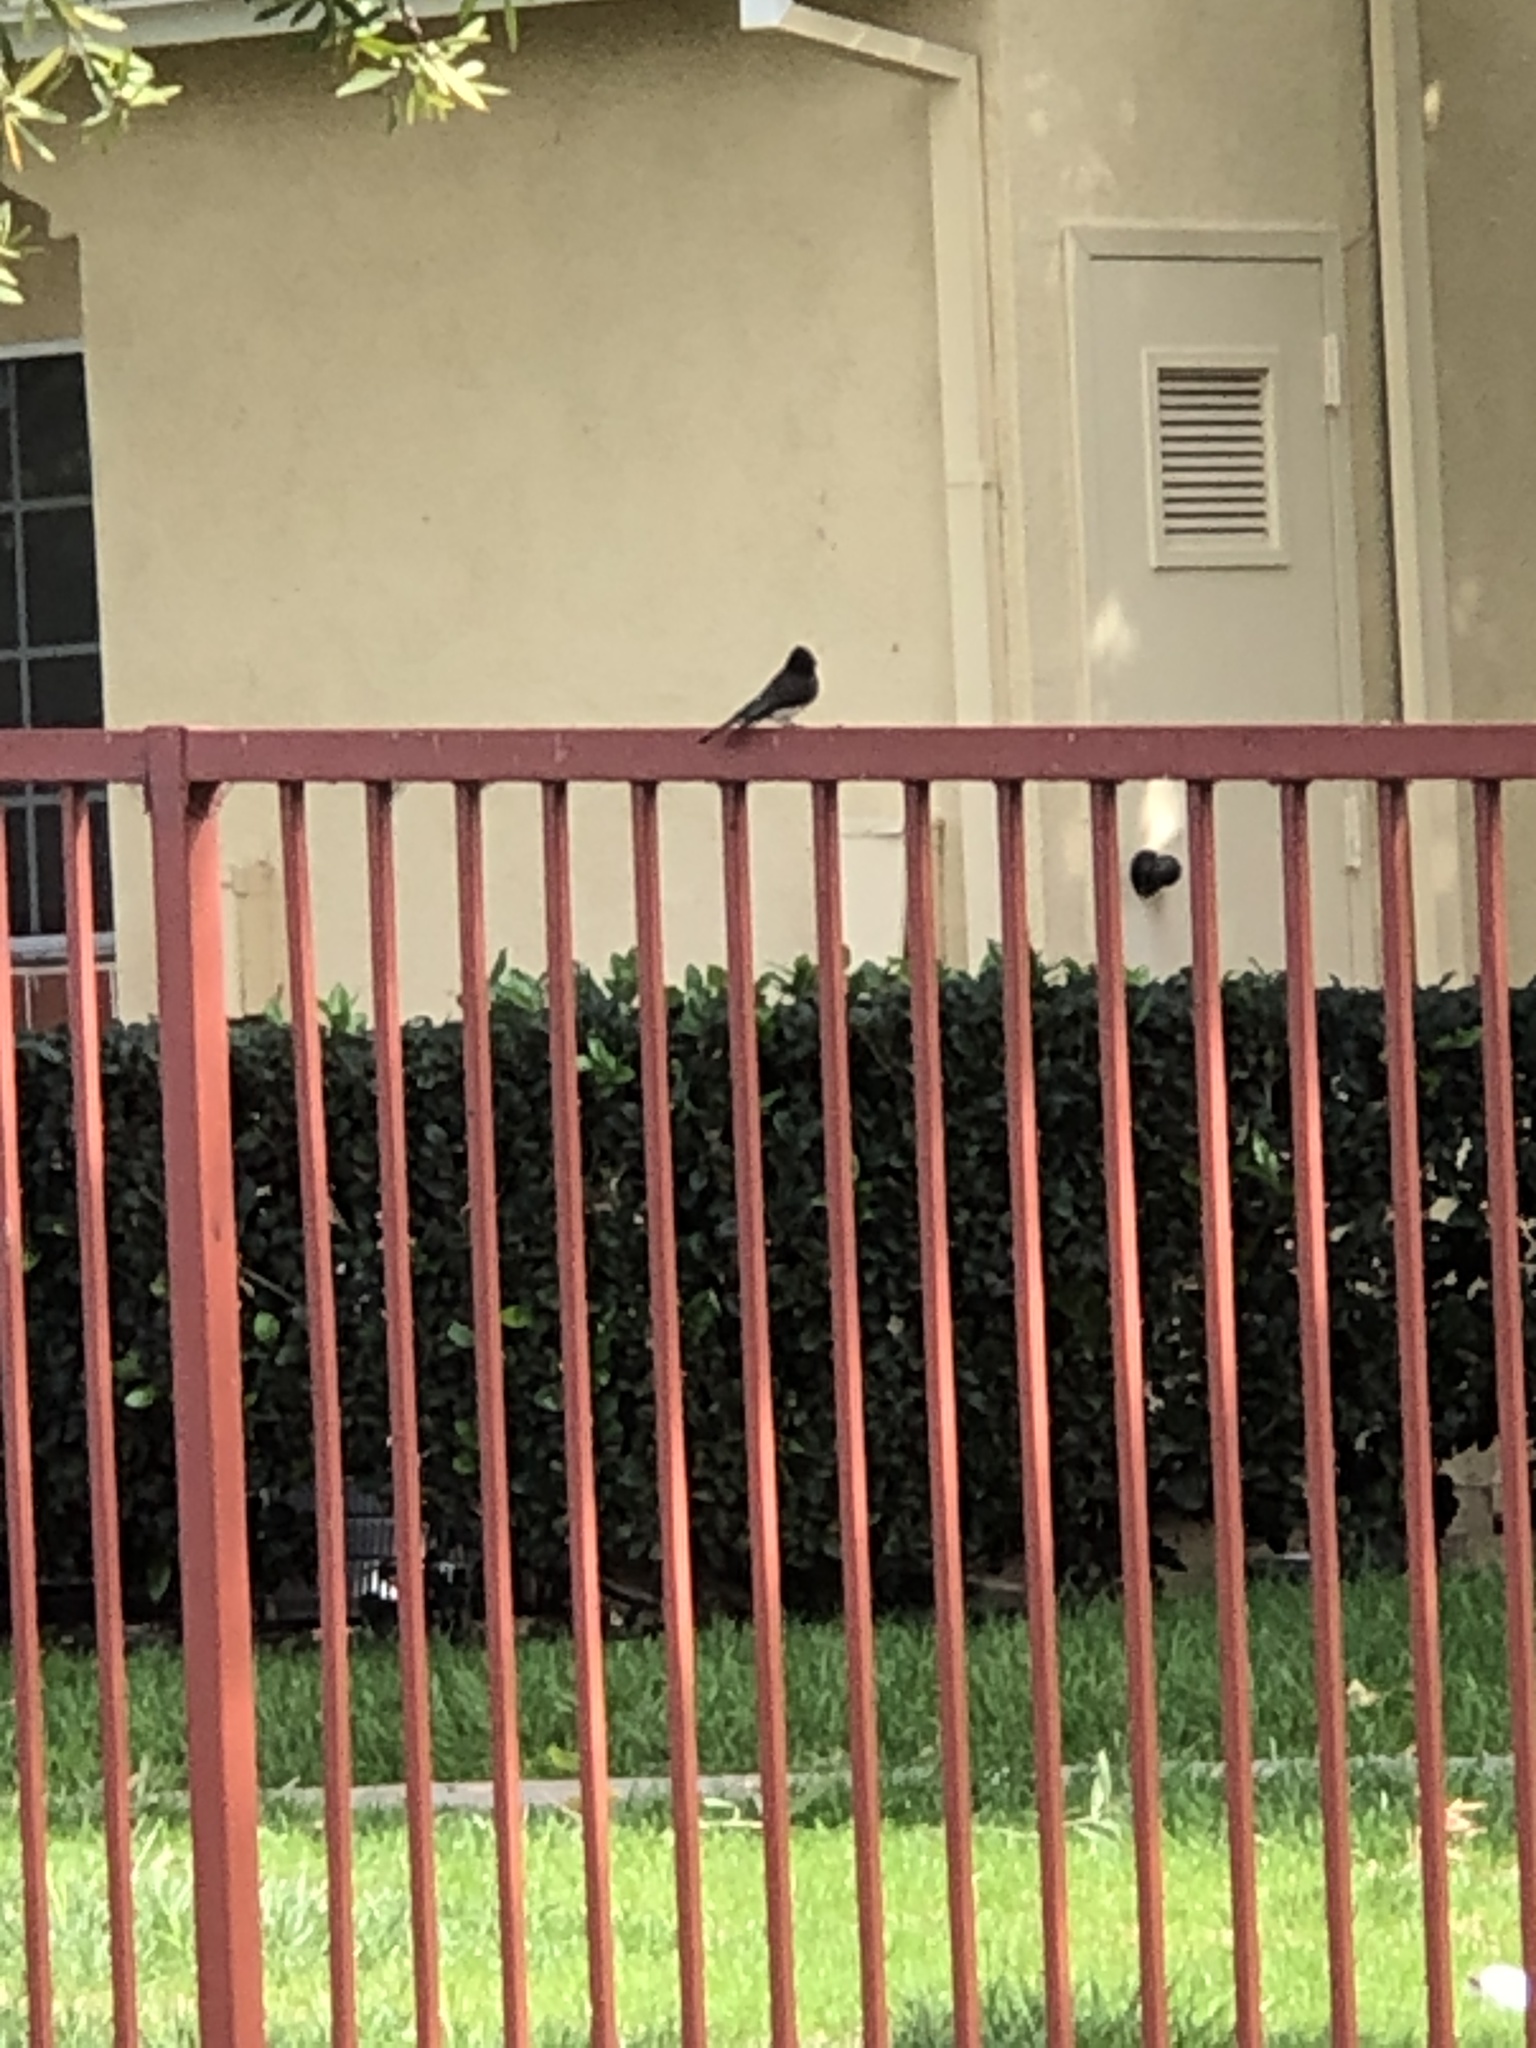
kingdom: Animalia
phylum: Chordata
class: Aves
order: Passeriformes
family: Tyrannidae
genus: Sayornis
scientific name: Sayornis nigricans
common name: Black phoebe
